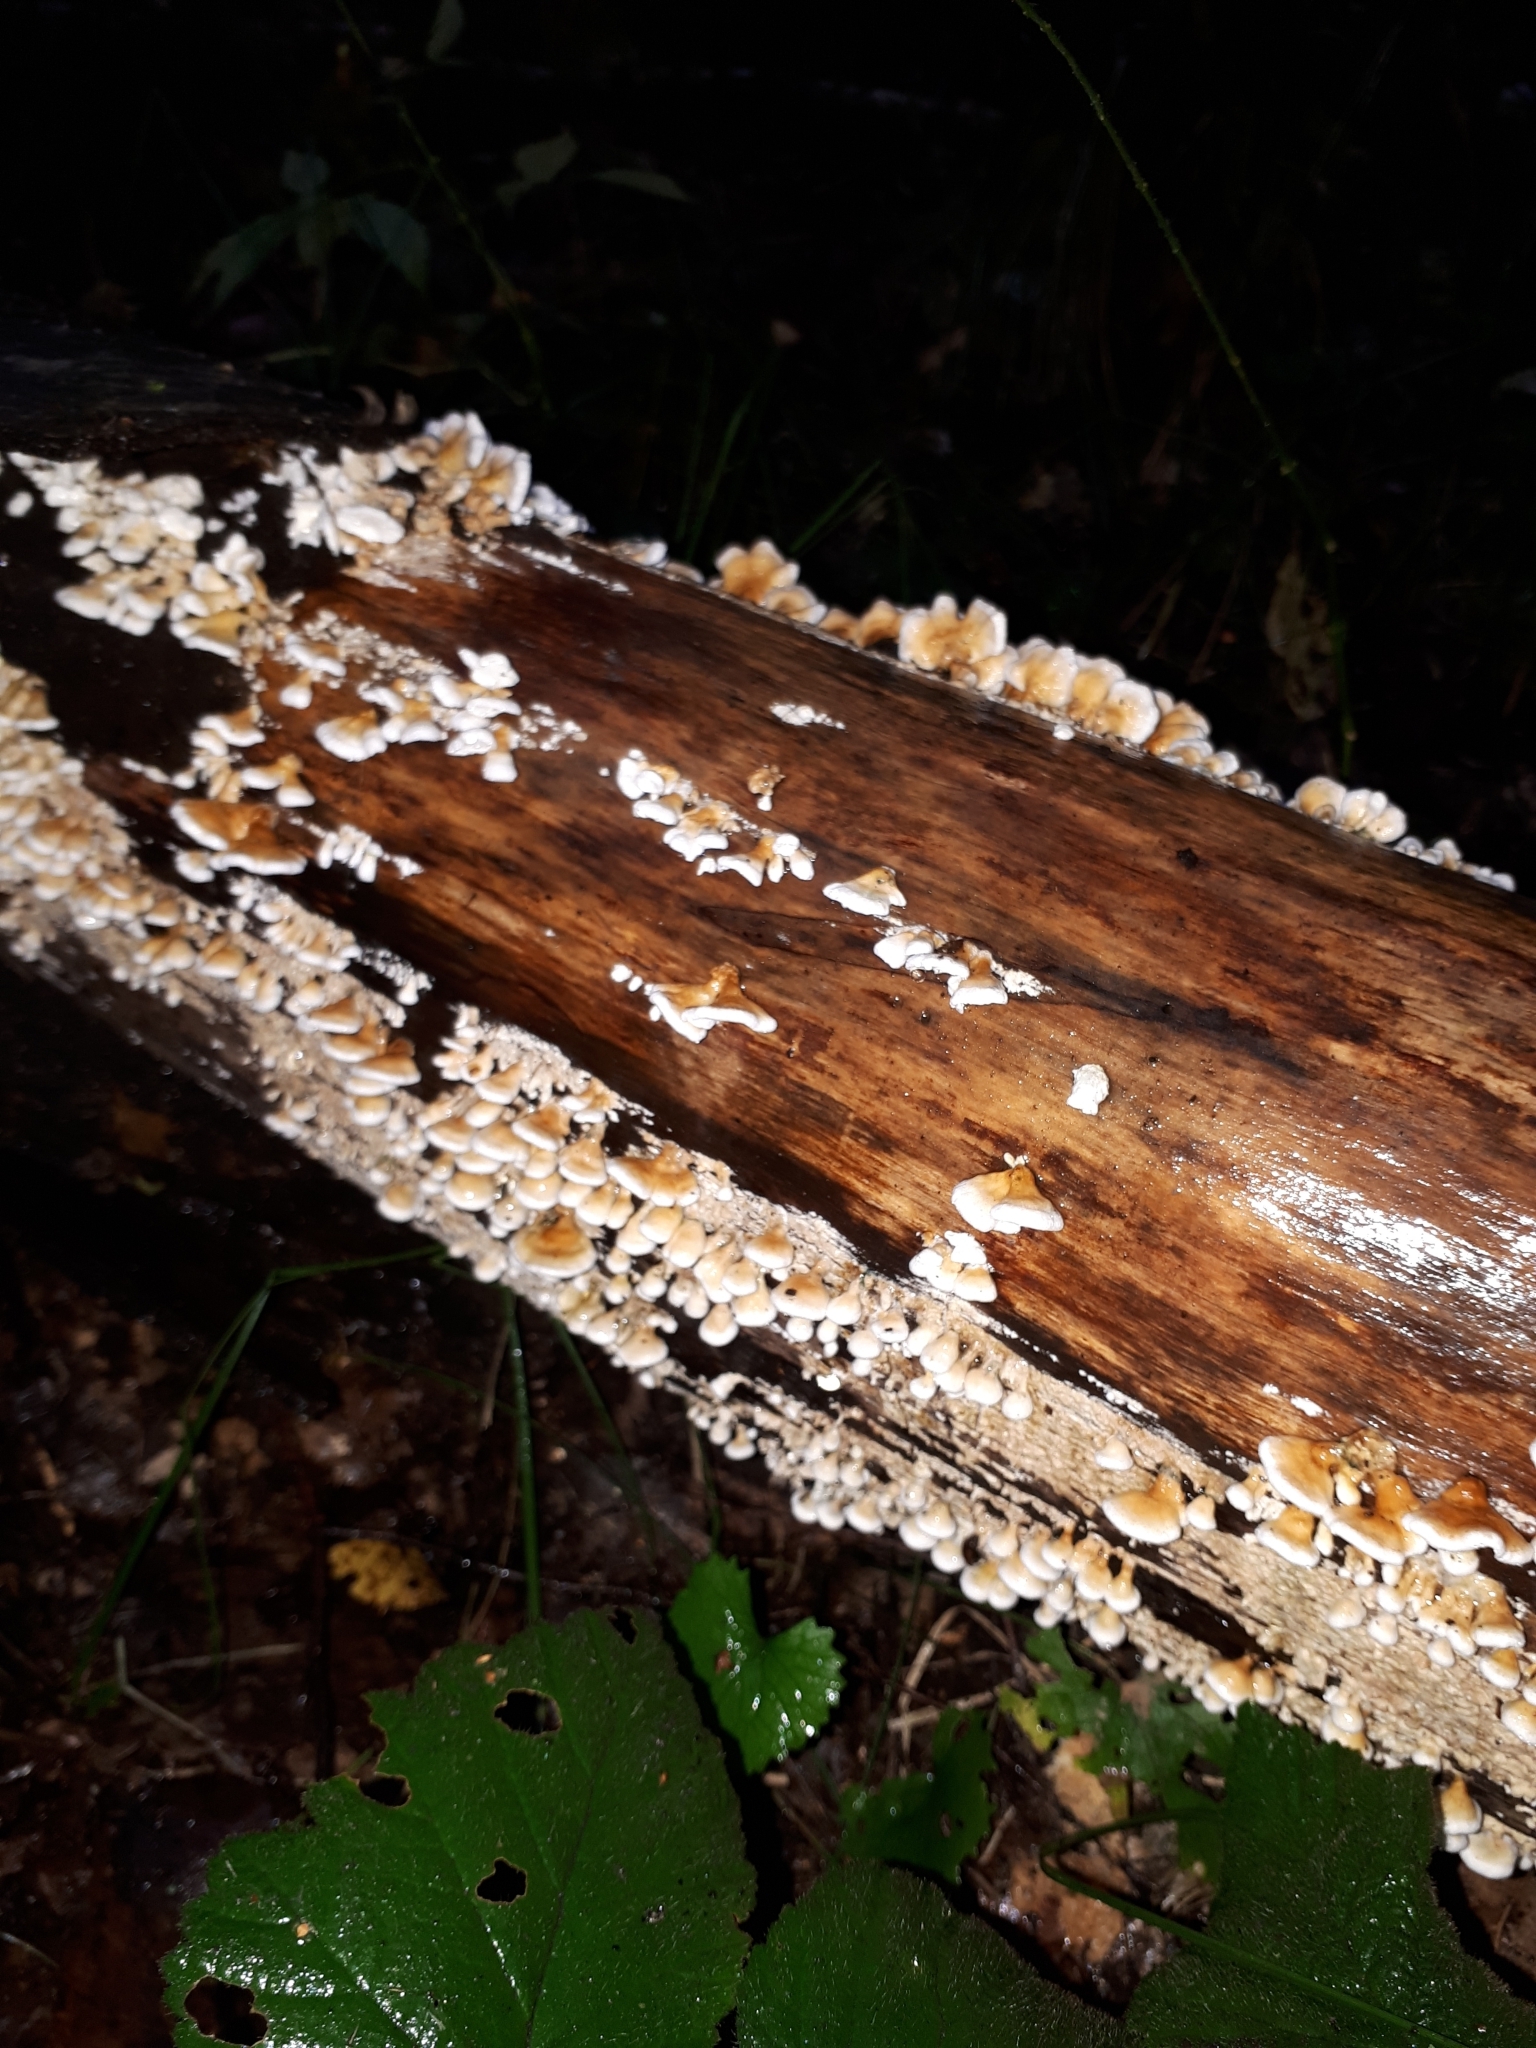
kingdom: Fungi
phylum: Basidiomycota
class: Agaricomycetes
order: Amylocorticiales
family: Amylocorticiaceae
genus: Plicaturopsis
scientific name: Plicaturopsis crispa
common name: Crimped gill
